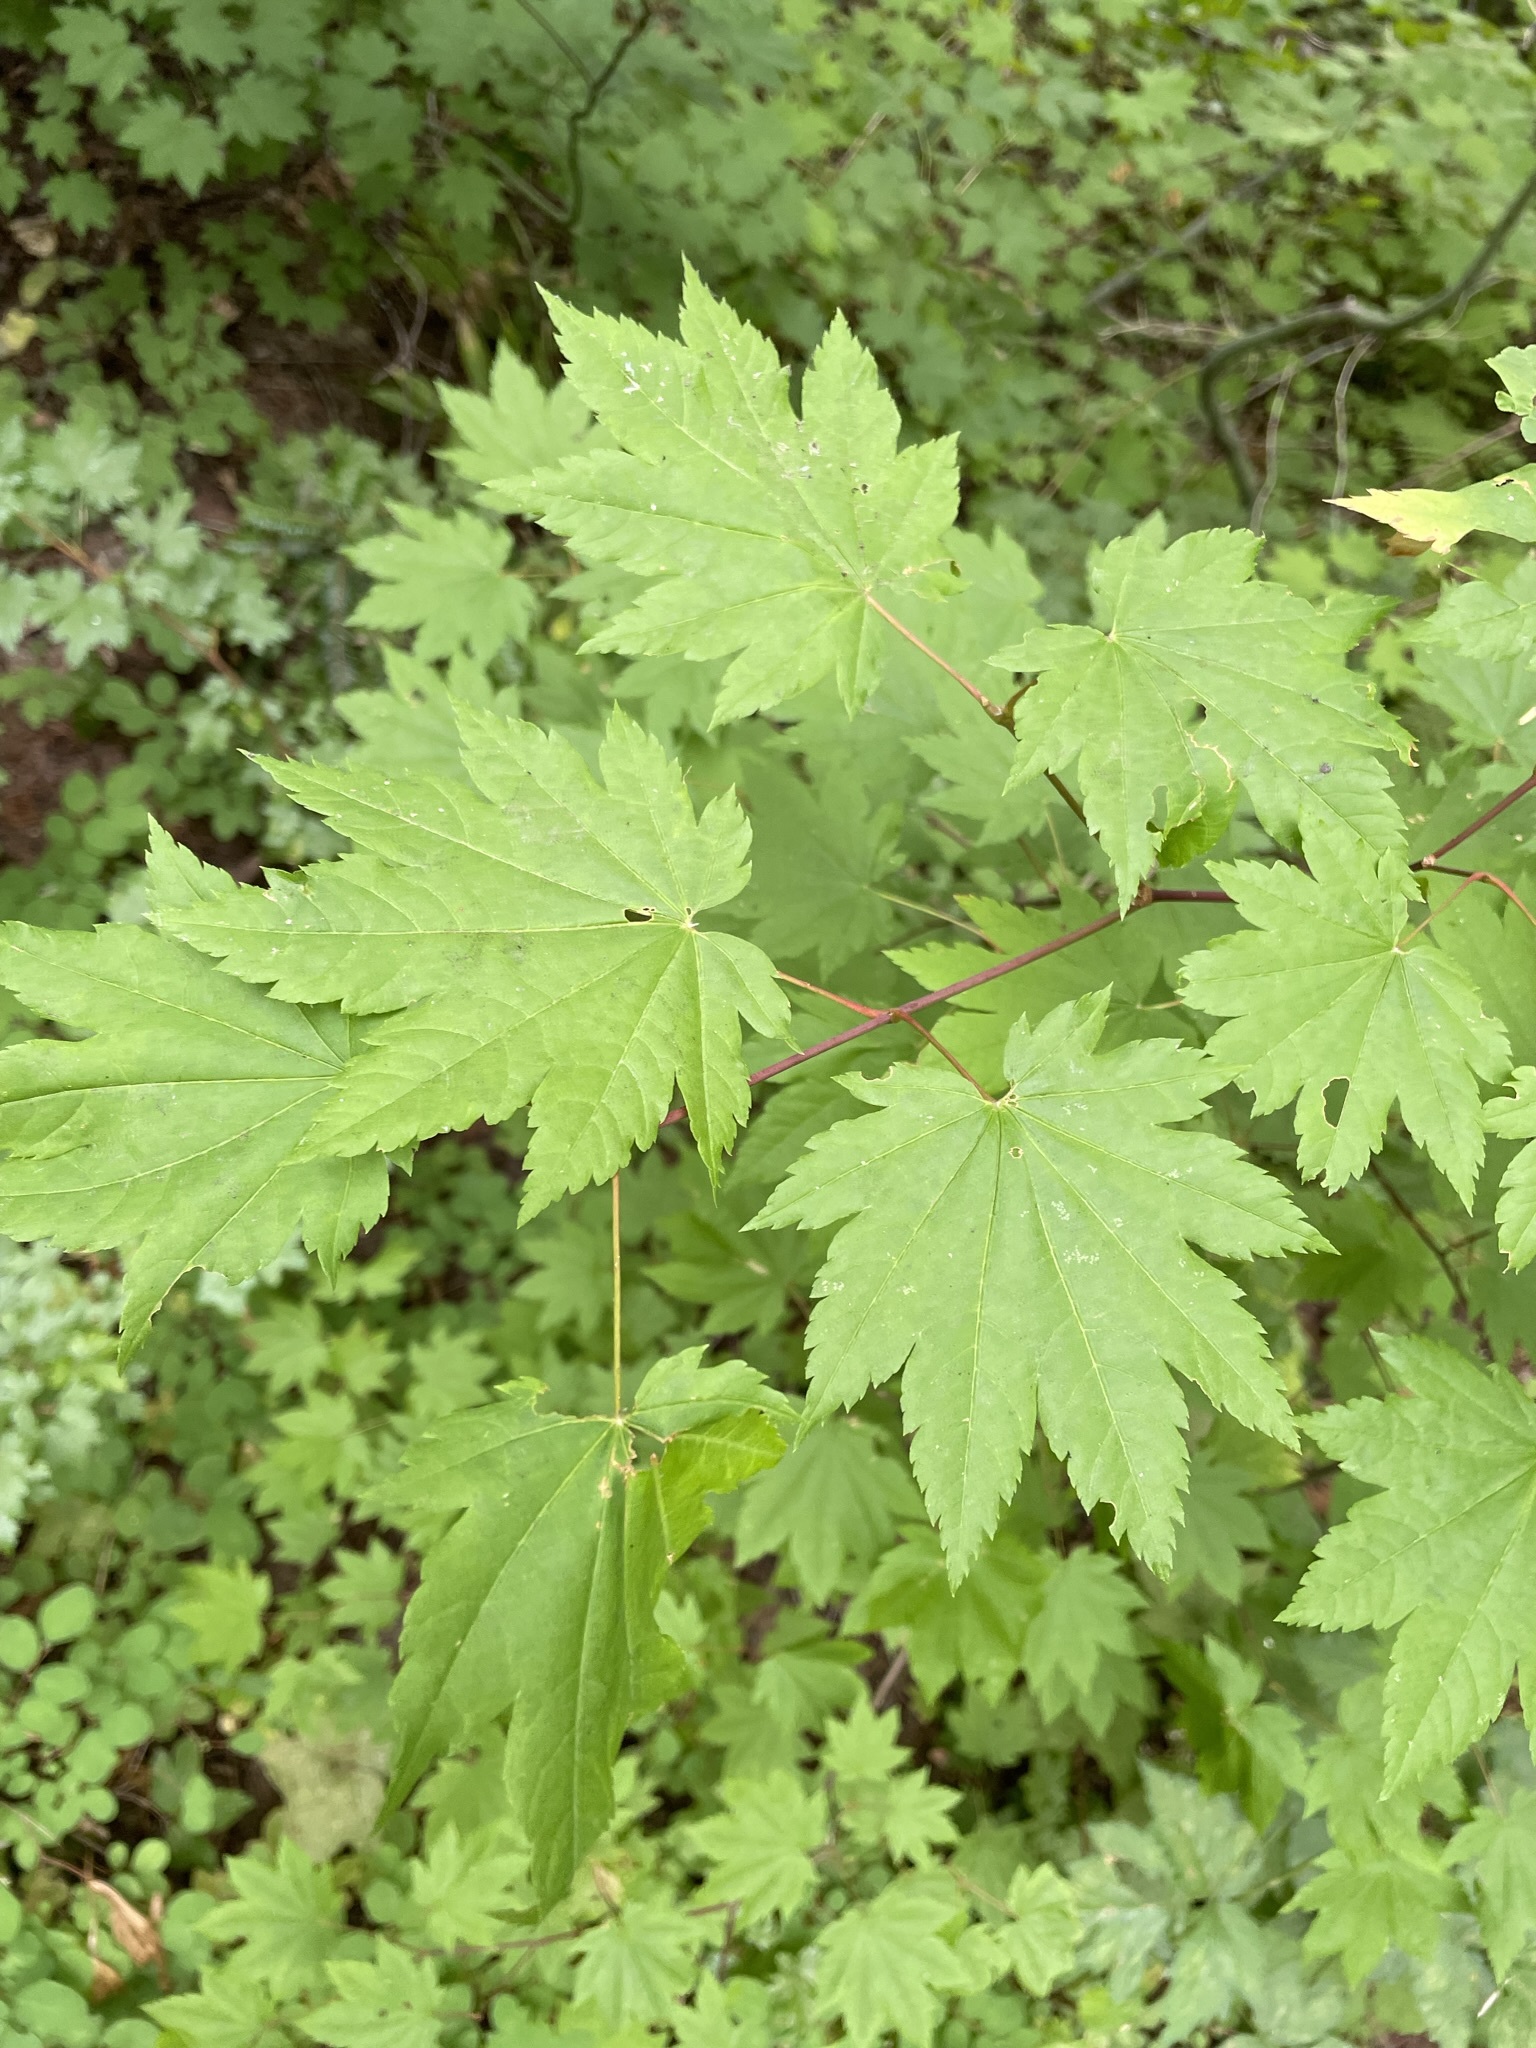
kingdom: Plantae
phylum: Tracheophyta
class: Magnoliopsida
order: Sapindales
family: Sapindaceae
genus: Acer
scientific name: Acer circinatum
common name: Vine maple
